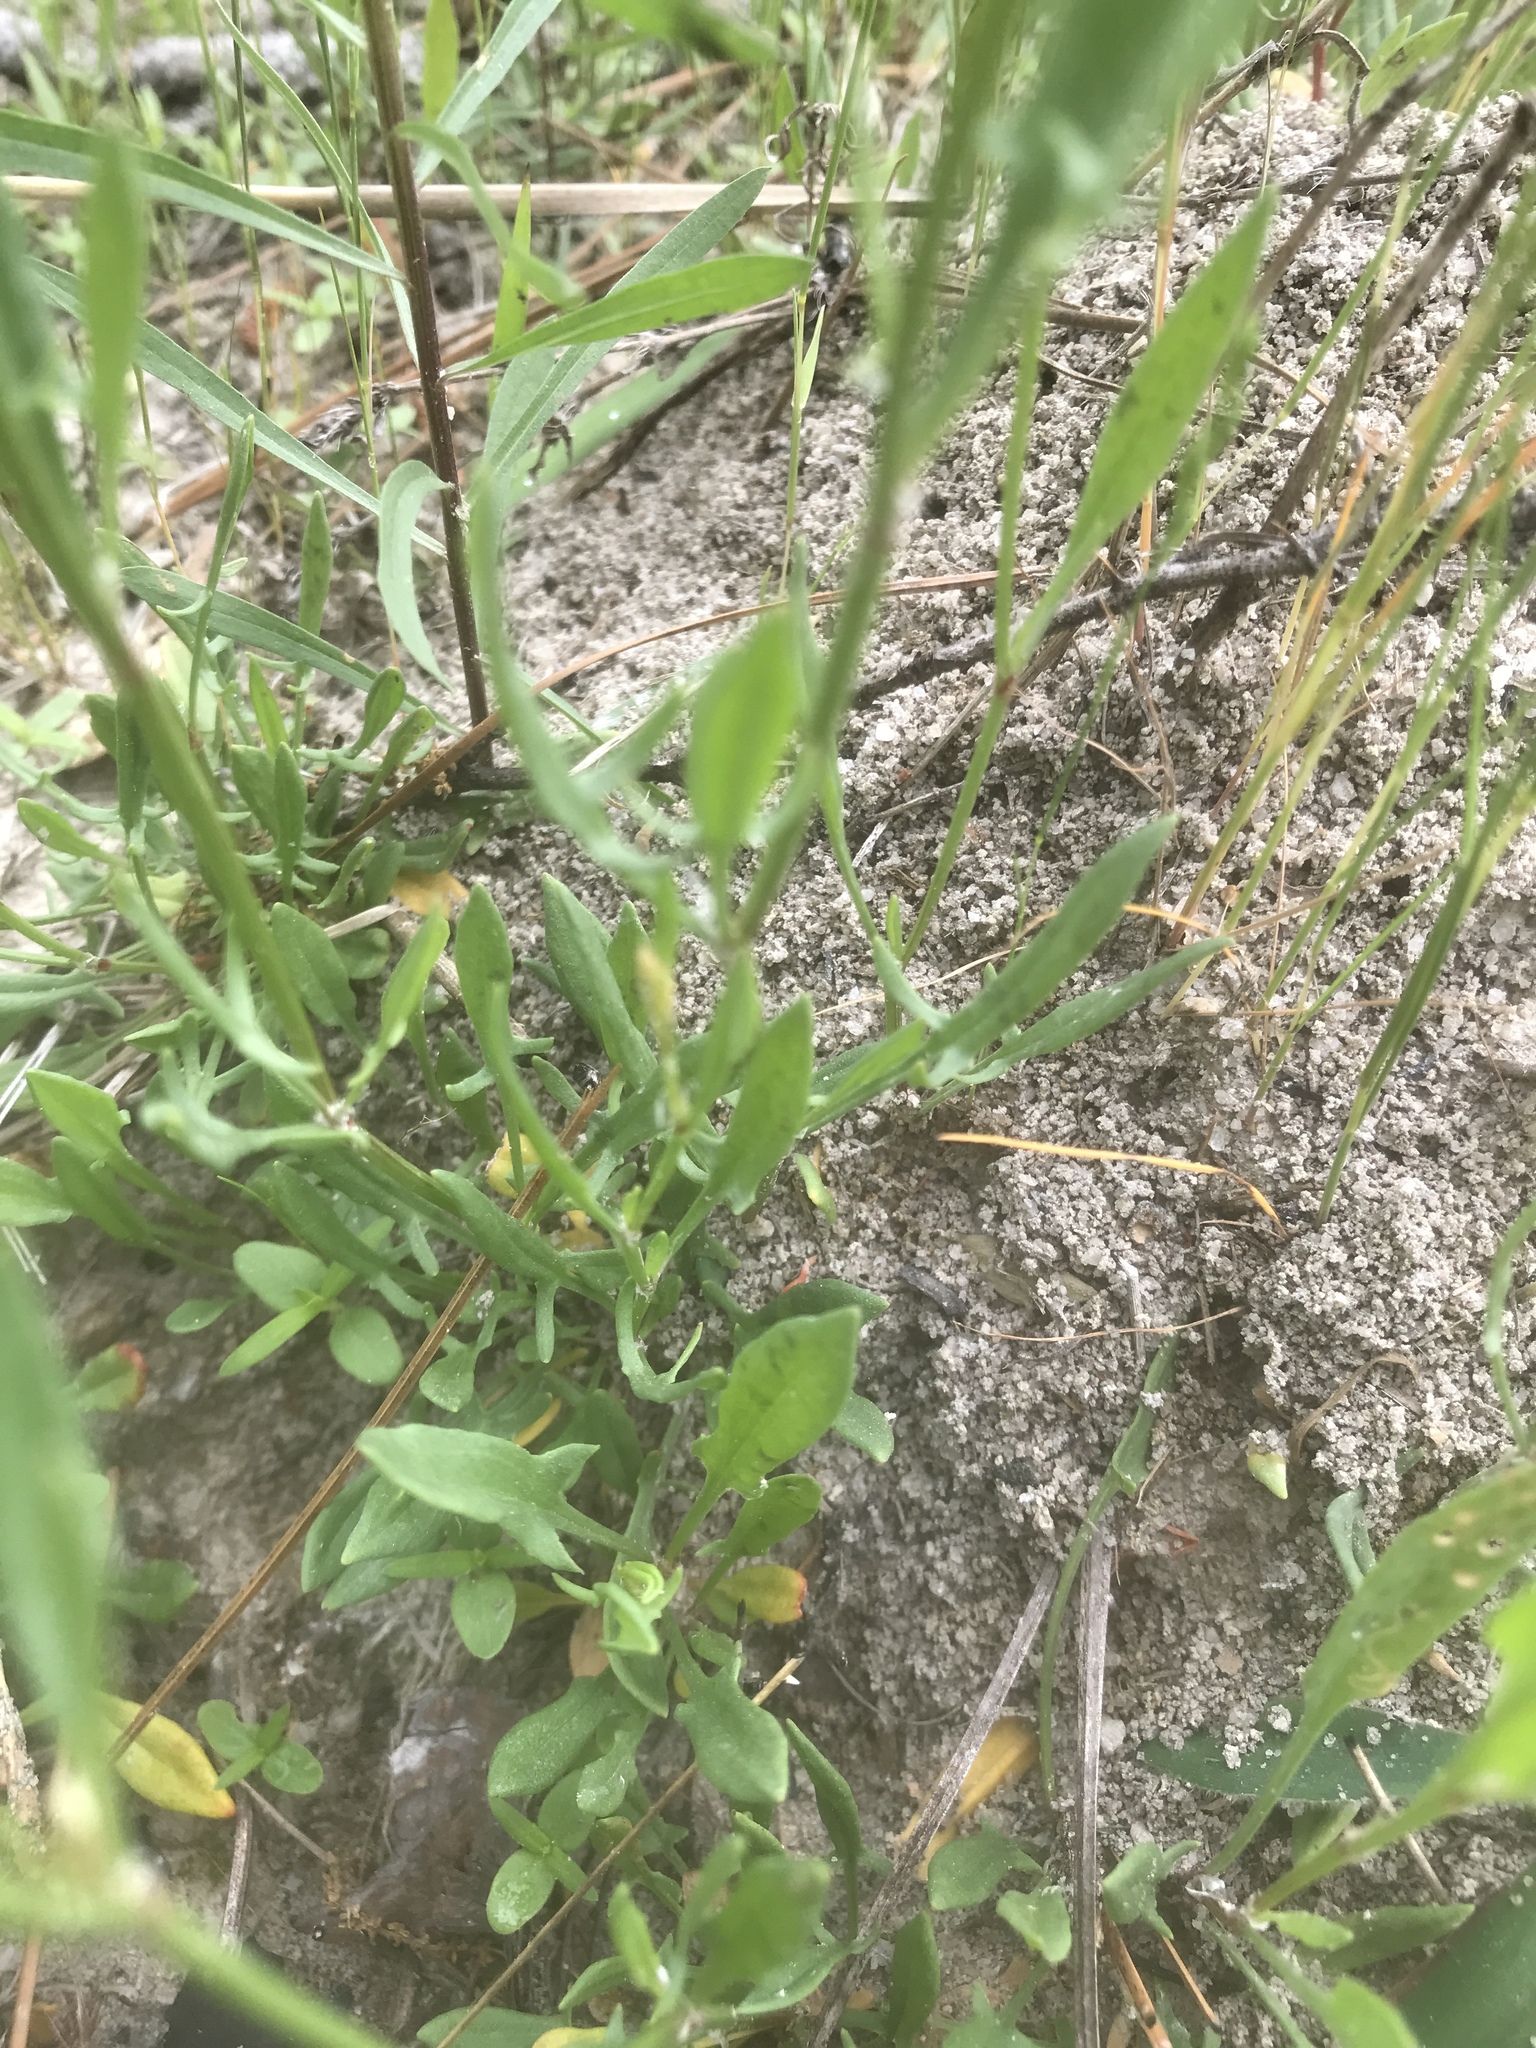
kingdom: Plantae
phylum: Tracheophyta
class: Magnoliopsida
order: Caryophyllales
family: Polygonaceae
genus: Rumex
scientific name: Rumex acetosella
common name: Common sheep sorrel
